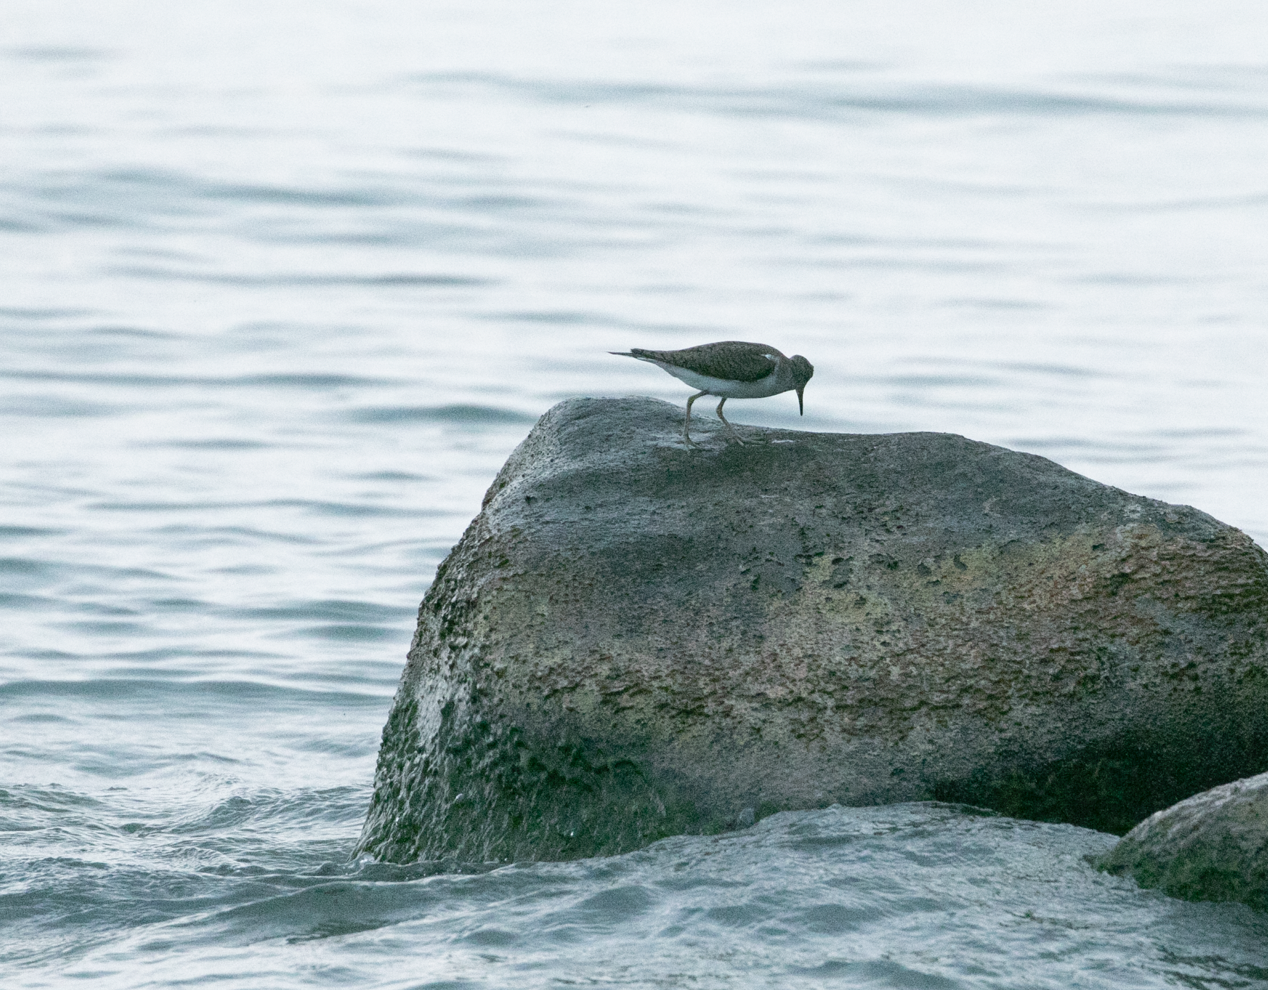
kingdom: Animalia
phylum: Chordata
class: Aves
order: Charadriiformes
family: Scolopacidae
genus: Actitis
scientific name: Actitis hypoleucos
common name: Common sandpiper
